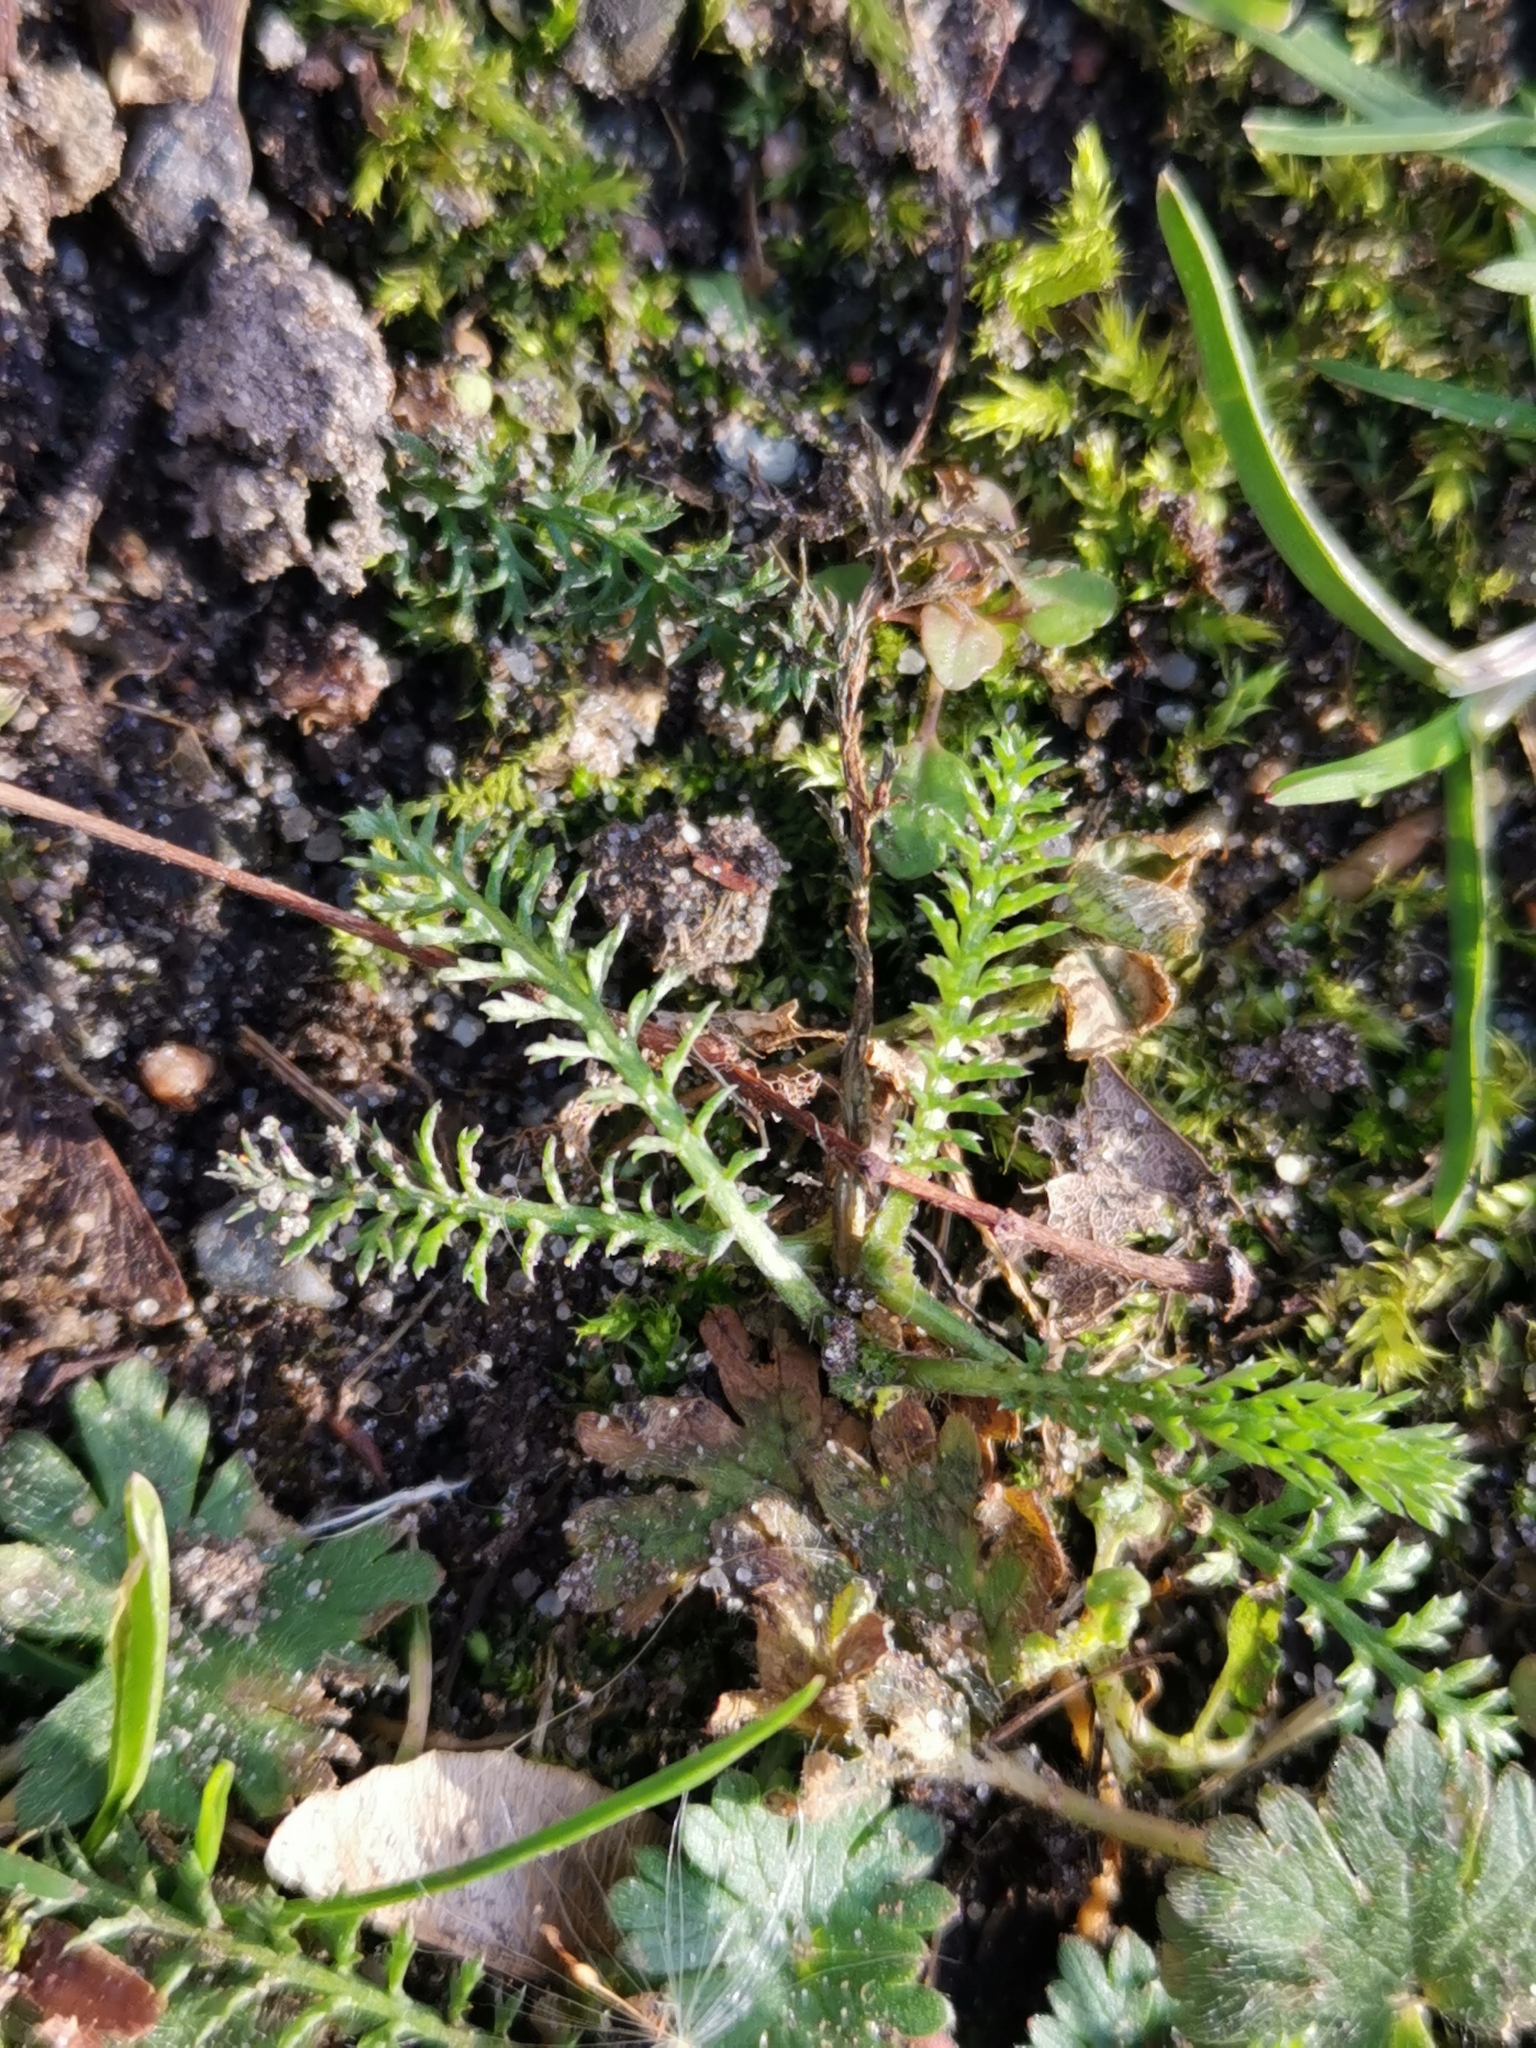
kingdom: Plantae
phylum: Tracheophyta
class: Magnoliopsida
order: Asterales
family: Asteraceae
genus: Achillea
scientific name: Achillea millefolium
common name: Yarrow
